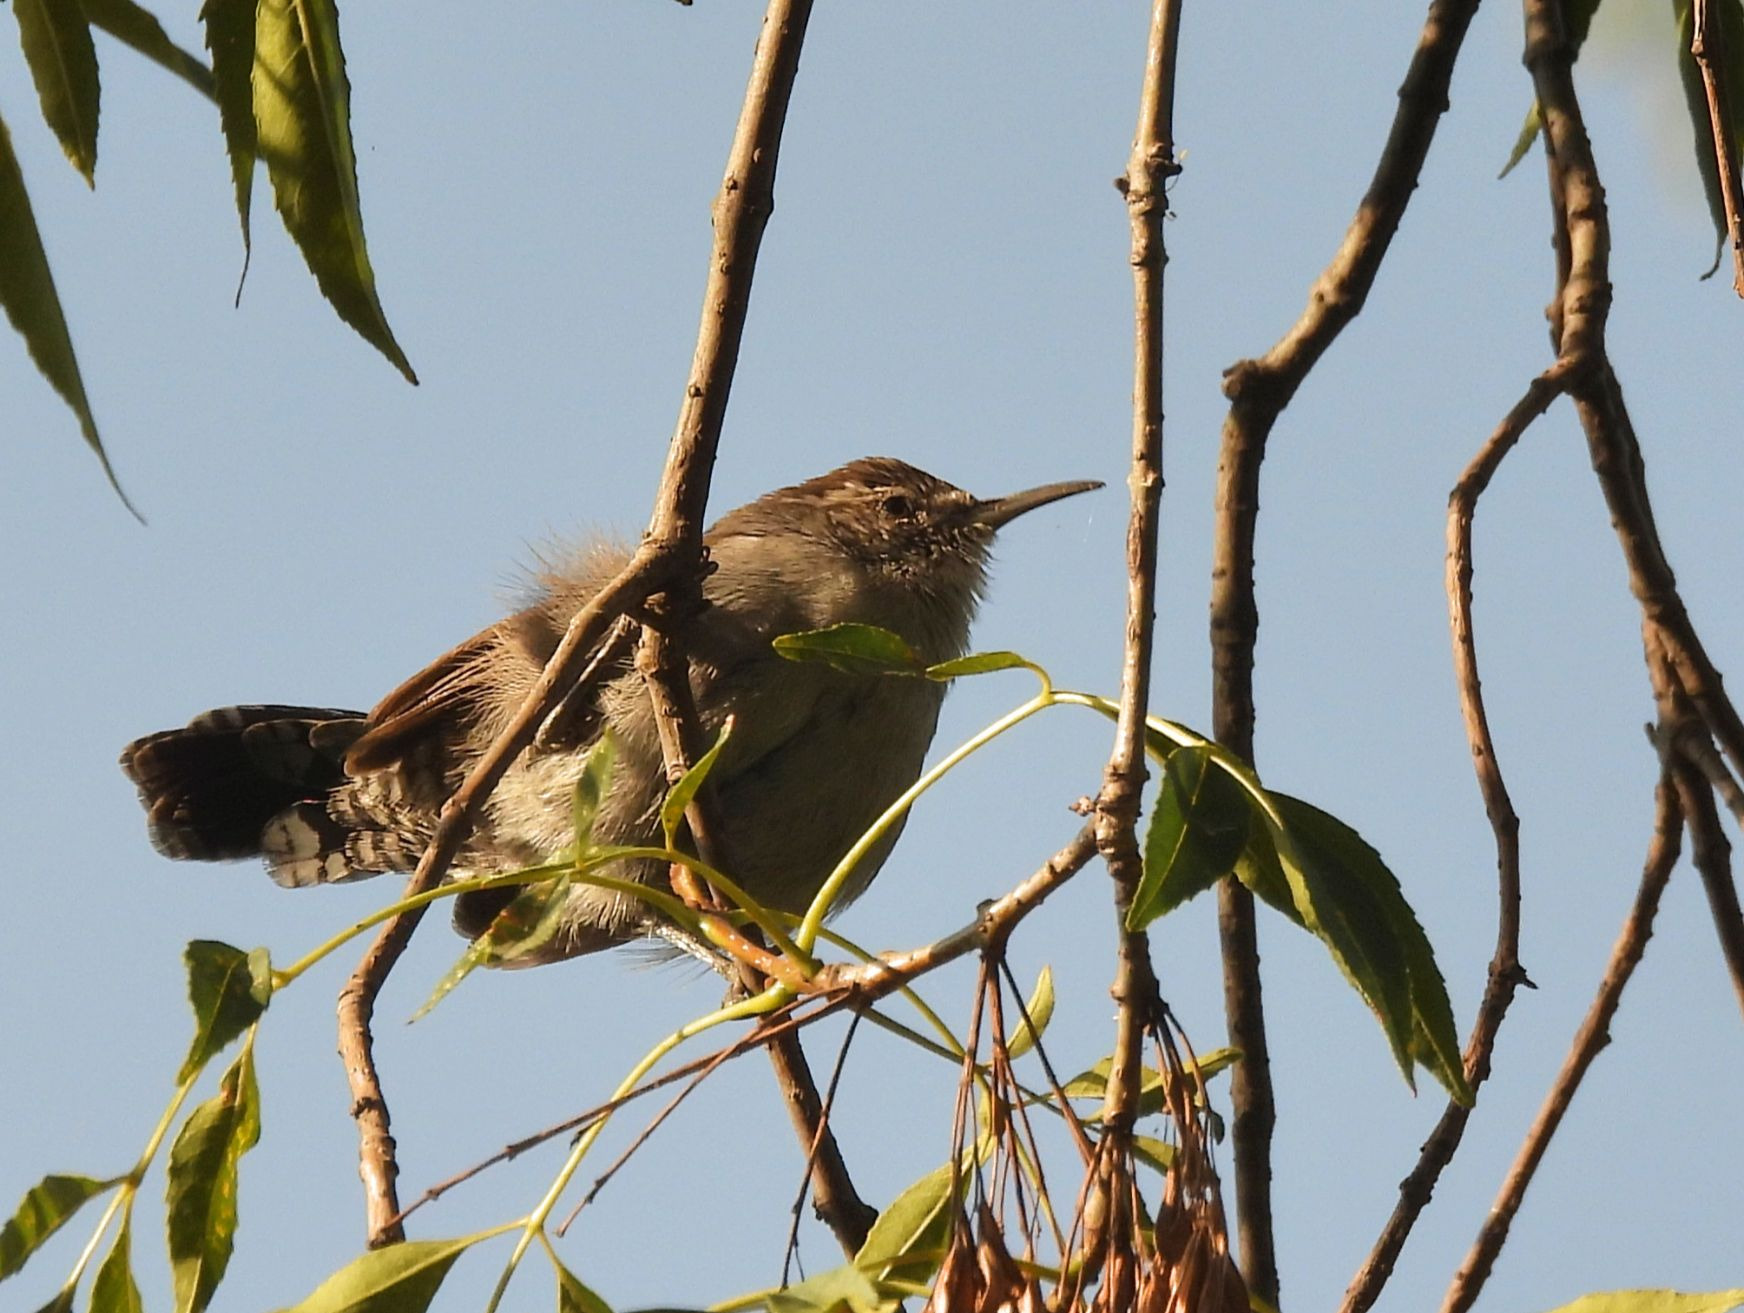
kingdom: Animalia
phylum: Chordata
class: Aves
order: Passeriformes
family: Troglodytidae
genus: Thryomanes
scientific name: Thryomanes bewickii
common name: Bewick's wren
